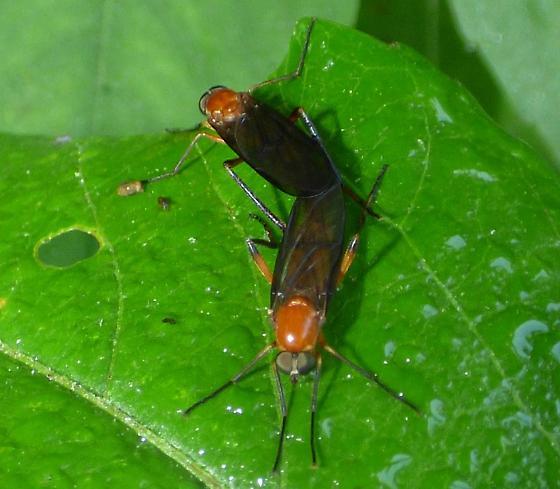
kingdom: Animalia
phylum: Arthropoda
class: Insecta
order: Diptera
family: Xylophagidae
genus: Dialysis
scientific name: Dialysis rufithorax
